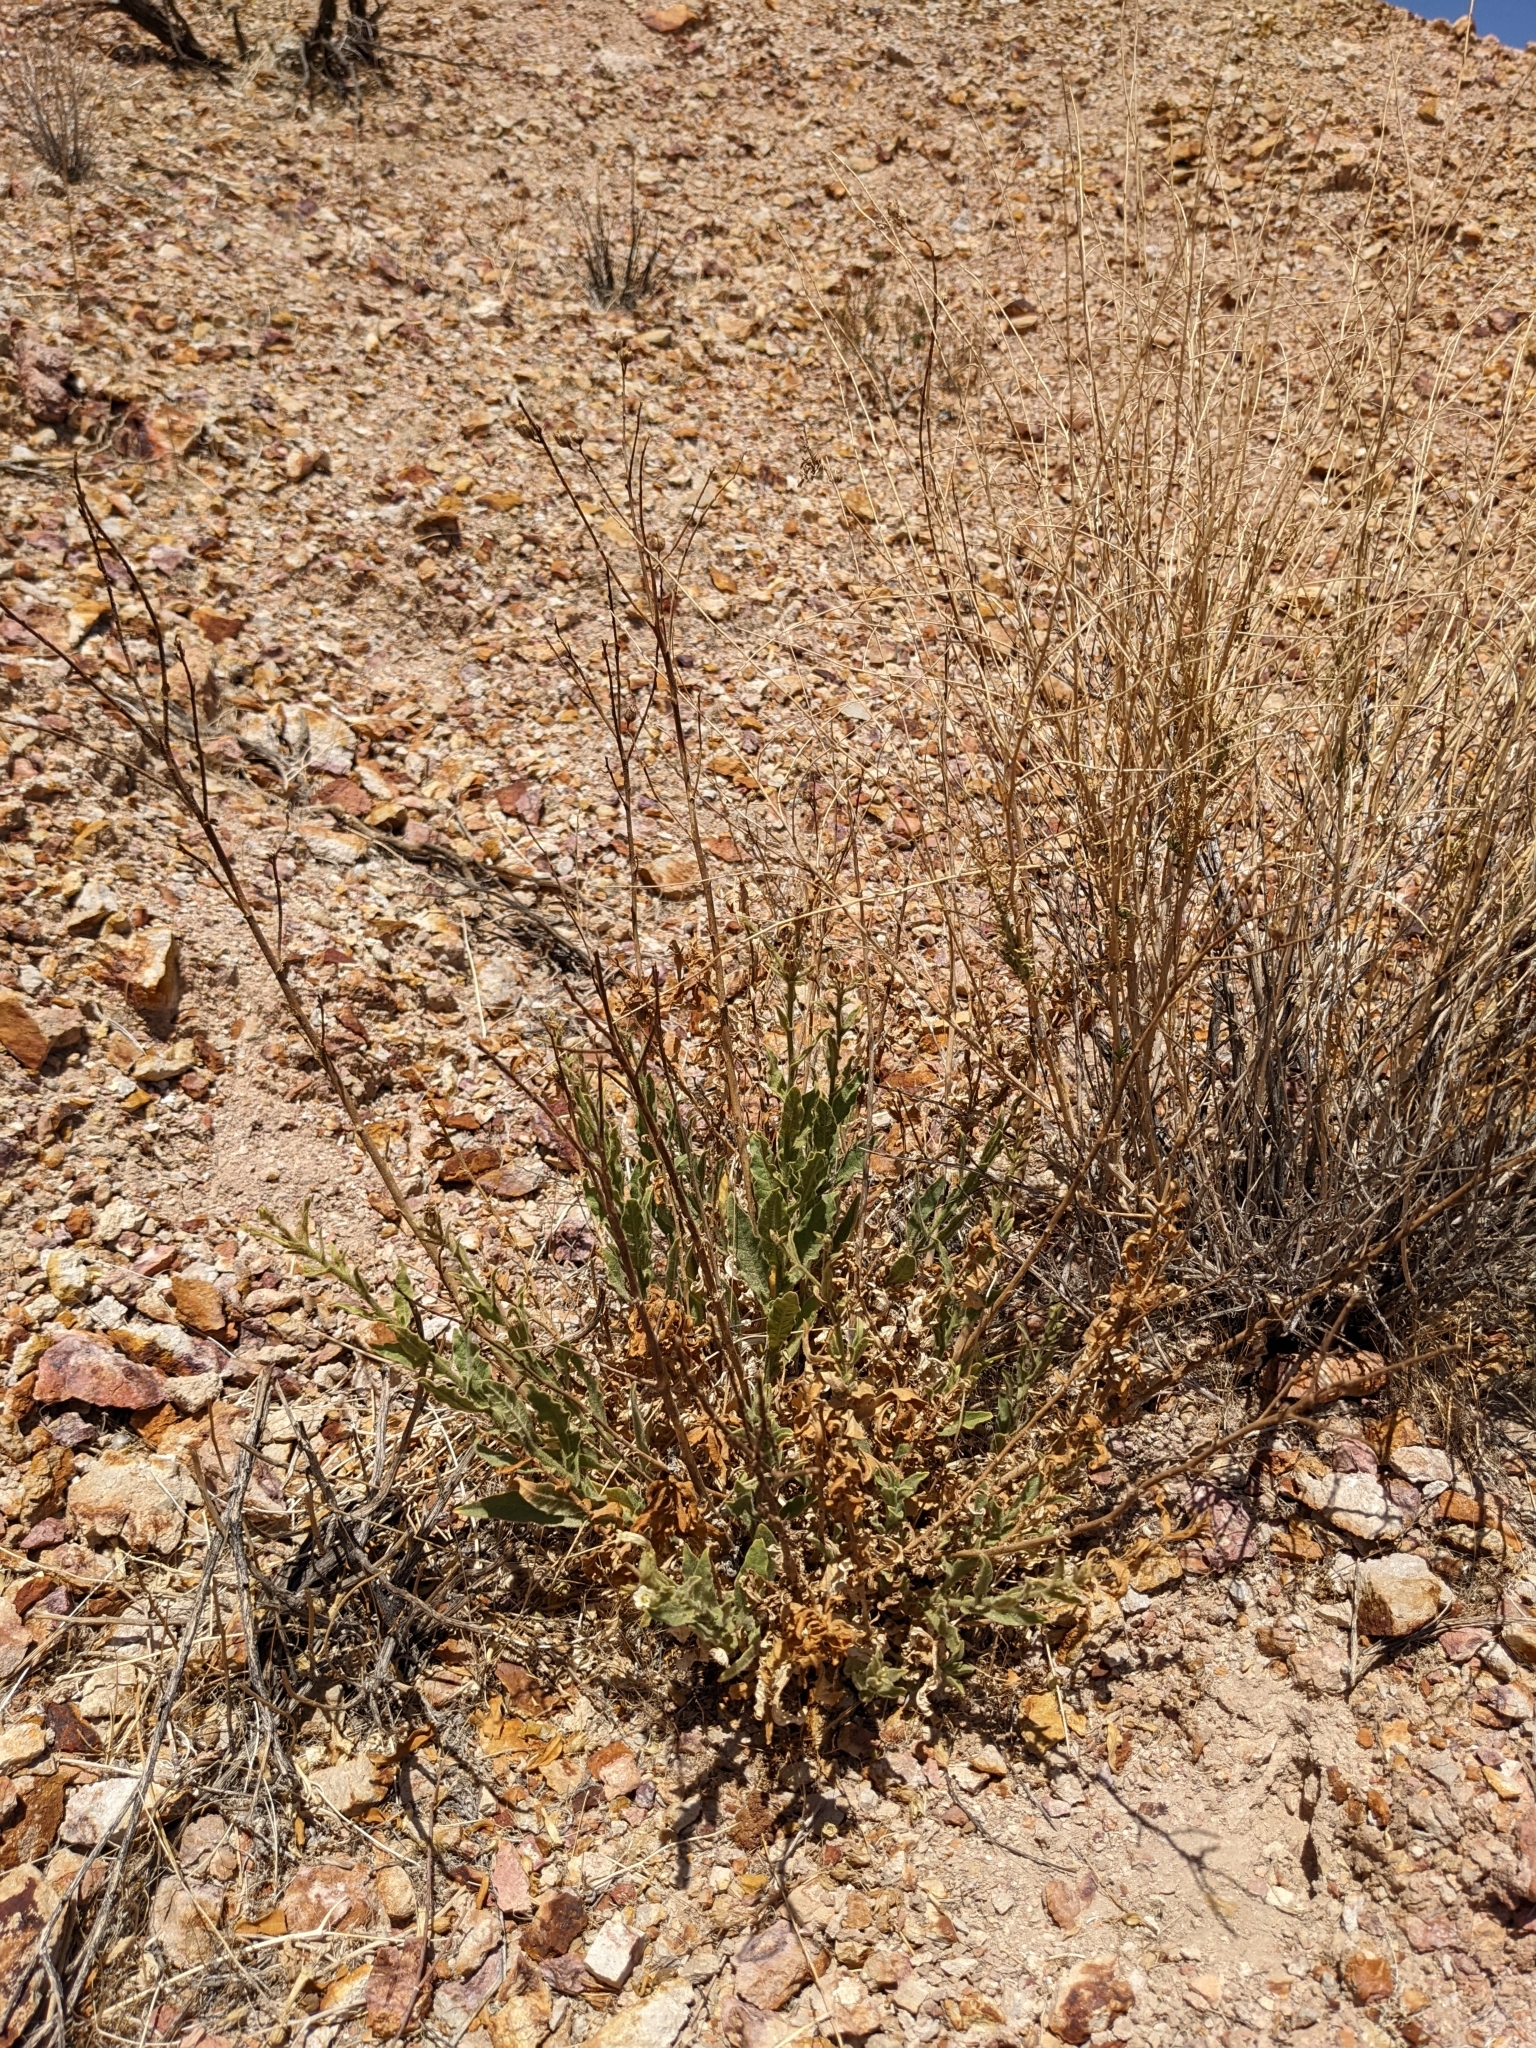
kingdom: Plantae
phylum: Tracheophyta
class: Magnoliopsida
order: Solanales
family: Solanaceae
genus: Nicotiana
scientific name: Nicotiana obtusifolia
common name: Desert tobacco
